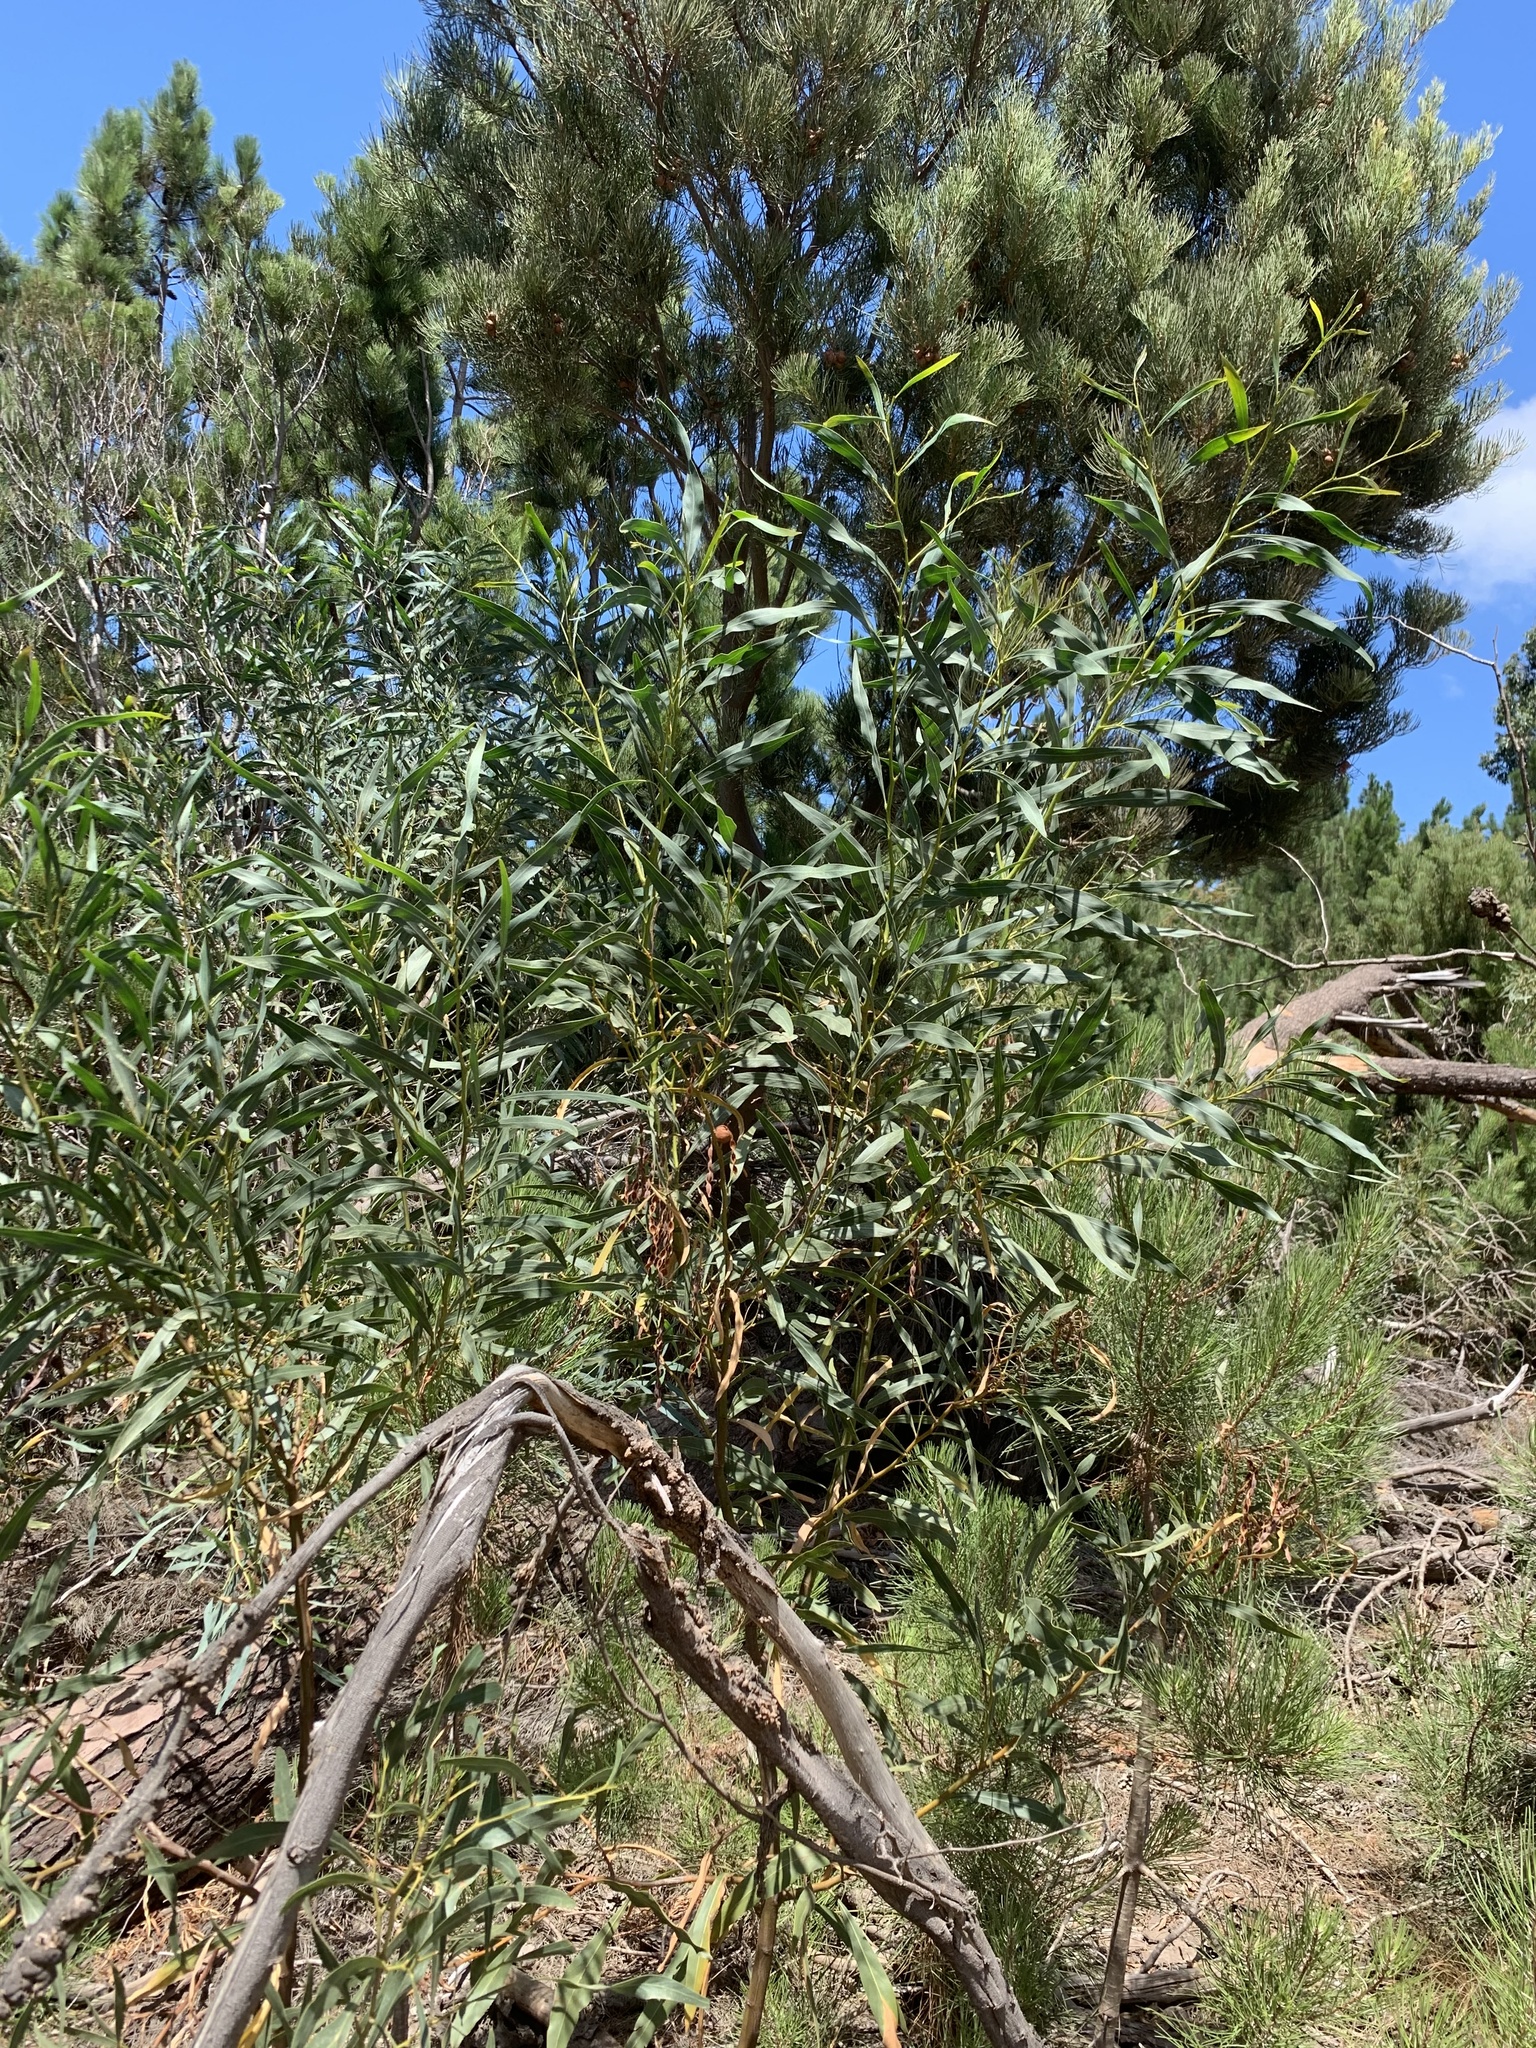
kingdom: Plantae
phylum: Tracheophyta
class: Magnoliopsida
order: Fabales
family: Fabaceae
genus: Acacia
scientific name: Acacia saligna
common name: Orange wattle
